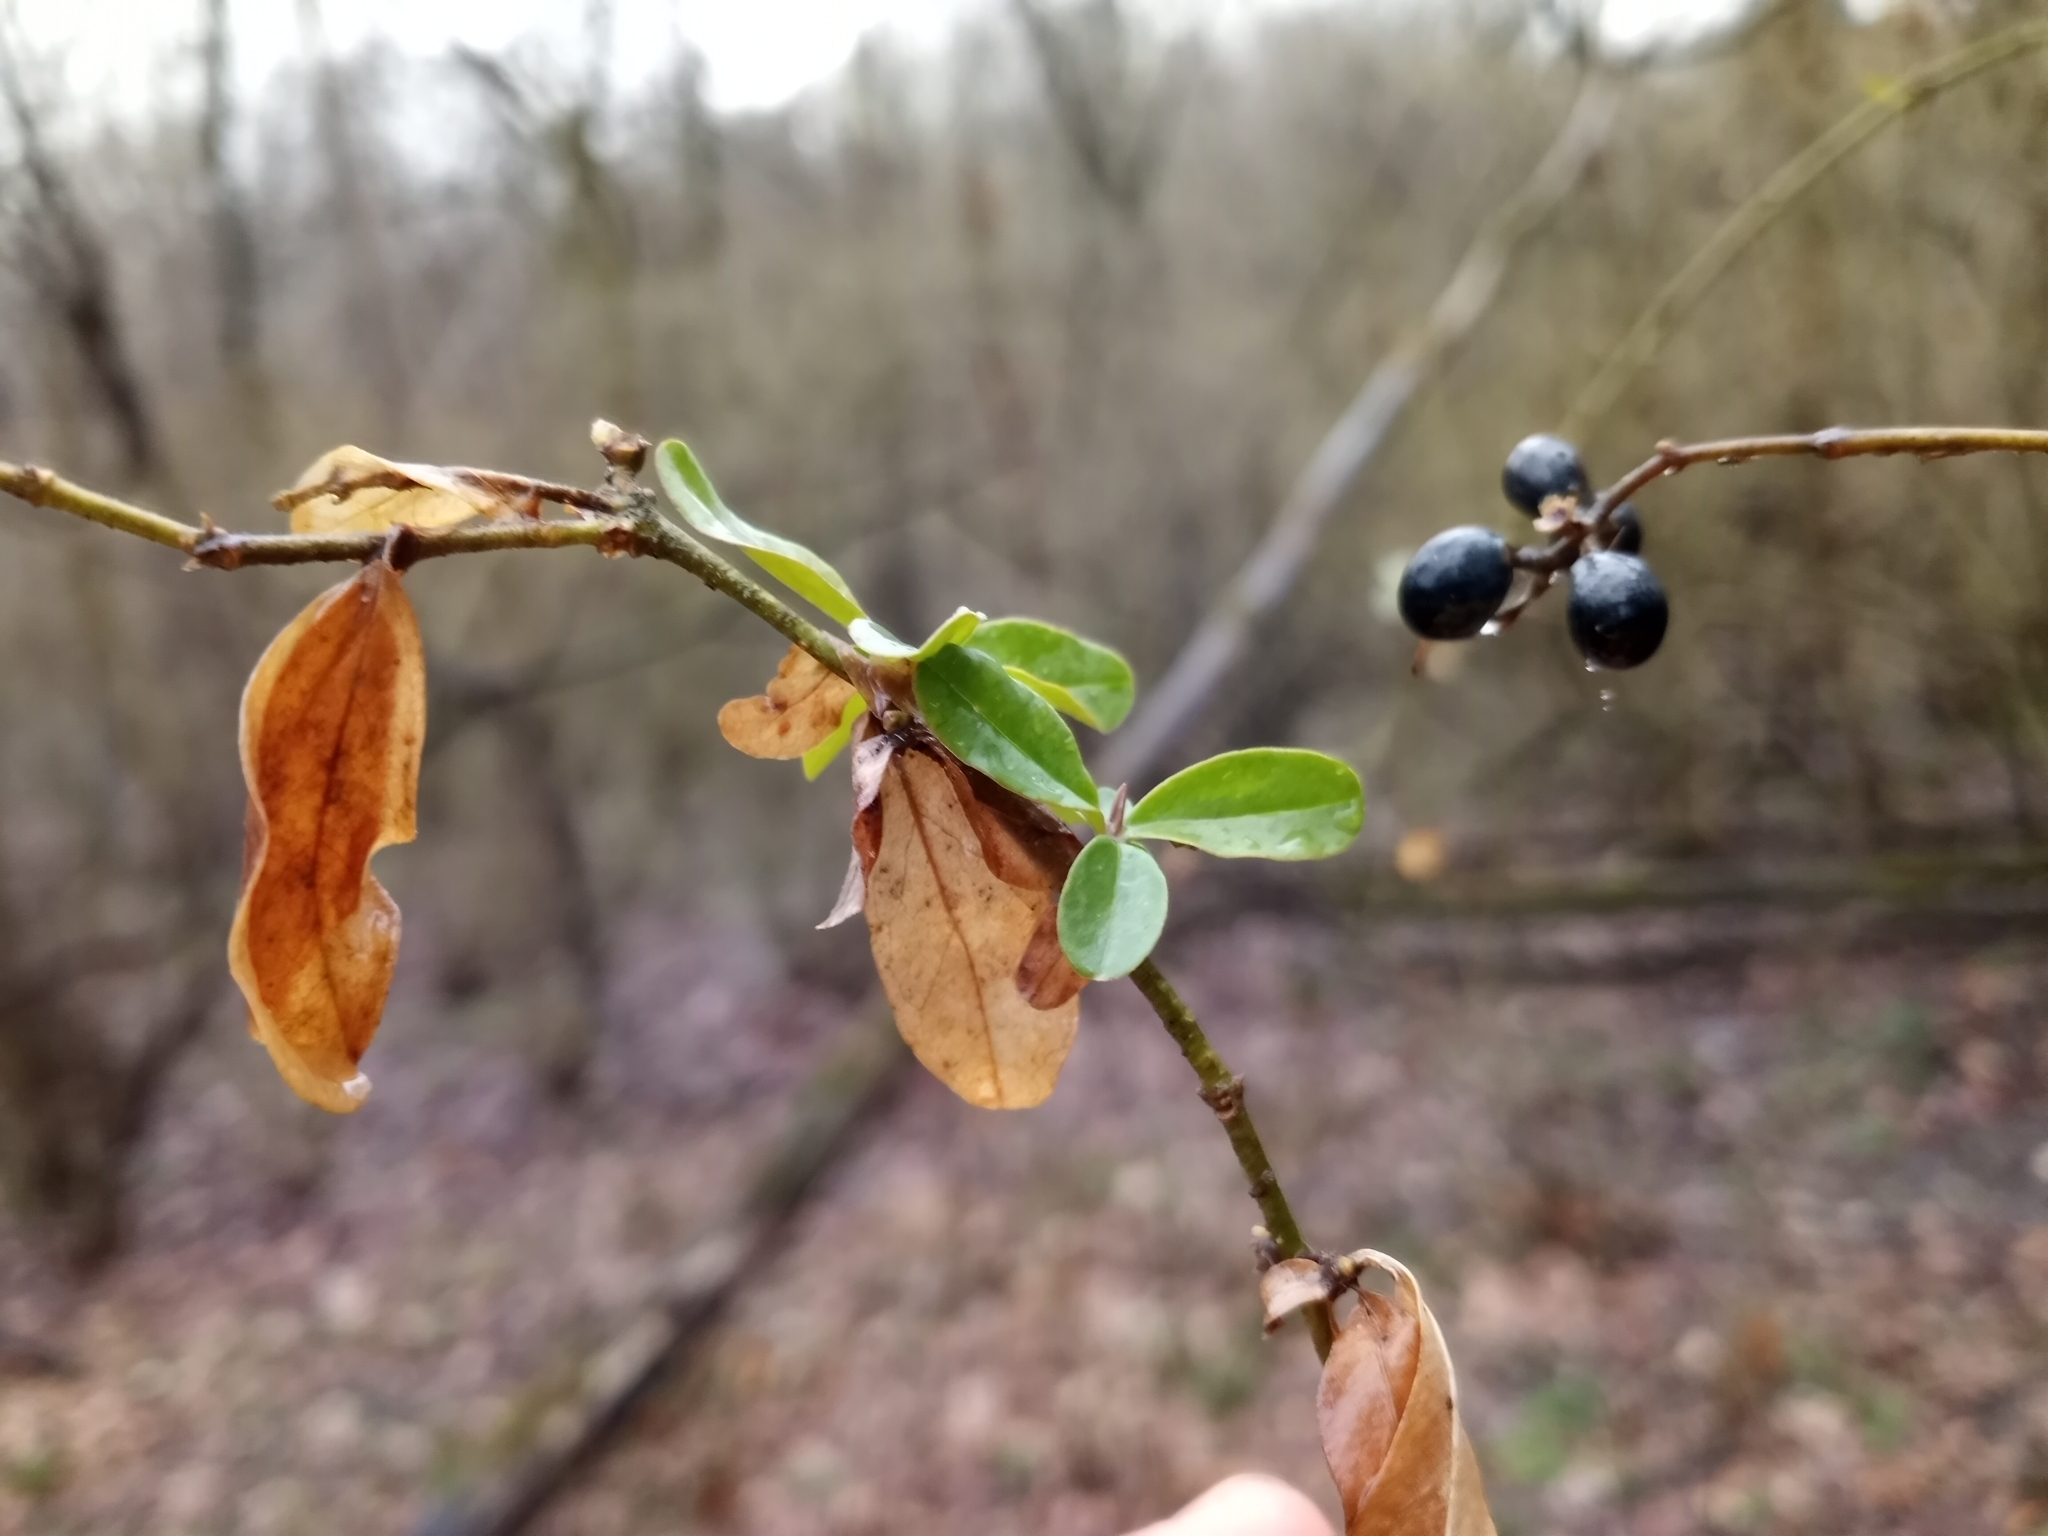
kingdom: Plantae
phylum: Tracheophyta
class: Magnoliopsida
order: Lamiales
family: Oleaceae
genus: Ligustrum
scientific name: Ligustrum obtusifolium
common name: Border privet
